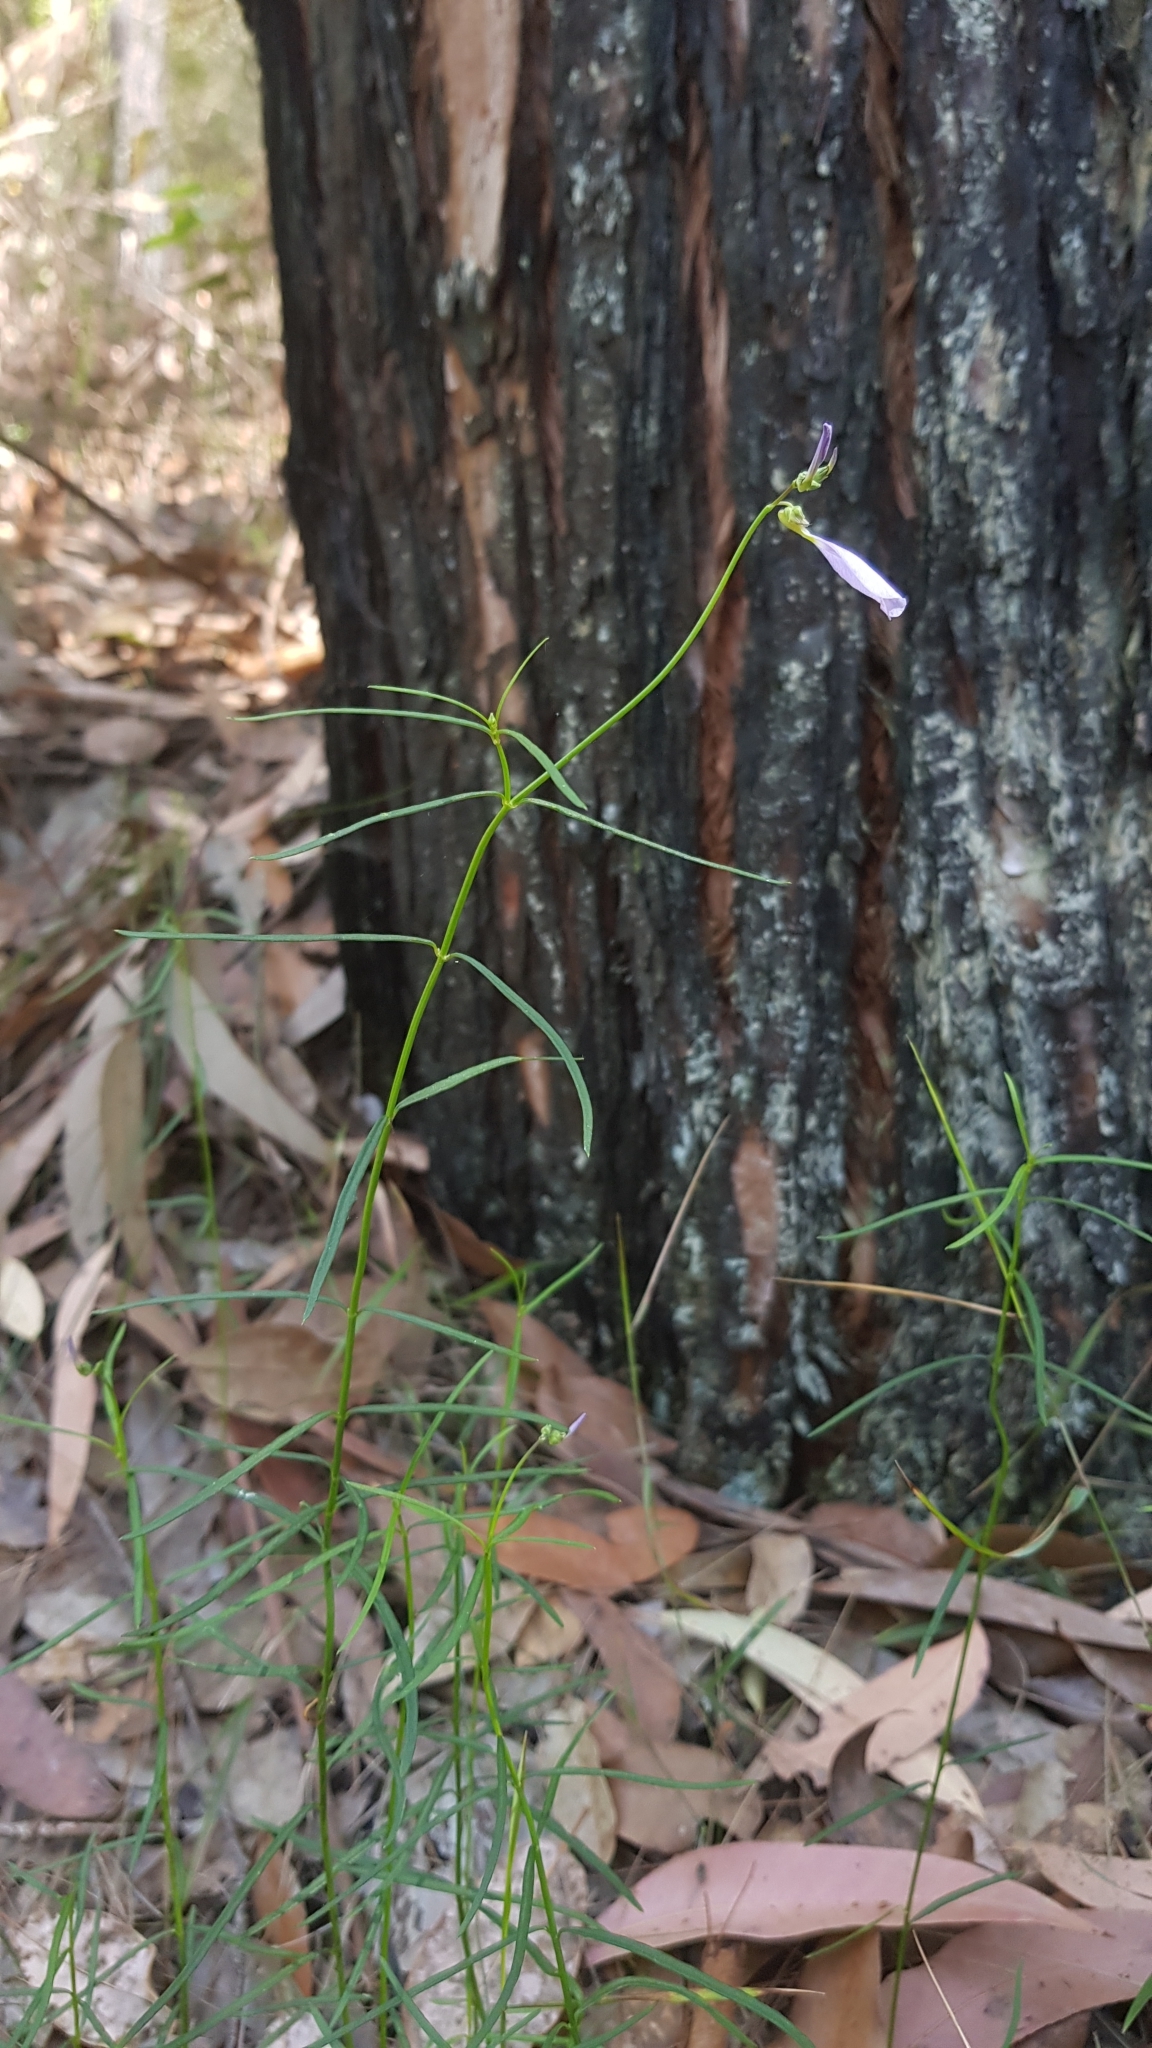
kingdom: Plantae
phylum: Tracheophyta
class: Magnoliopsida
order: Malpighiales
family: Violaceae
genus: Pigea
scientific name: Pigea monopetala
